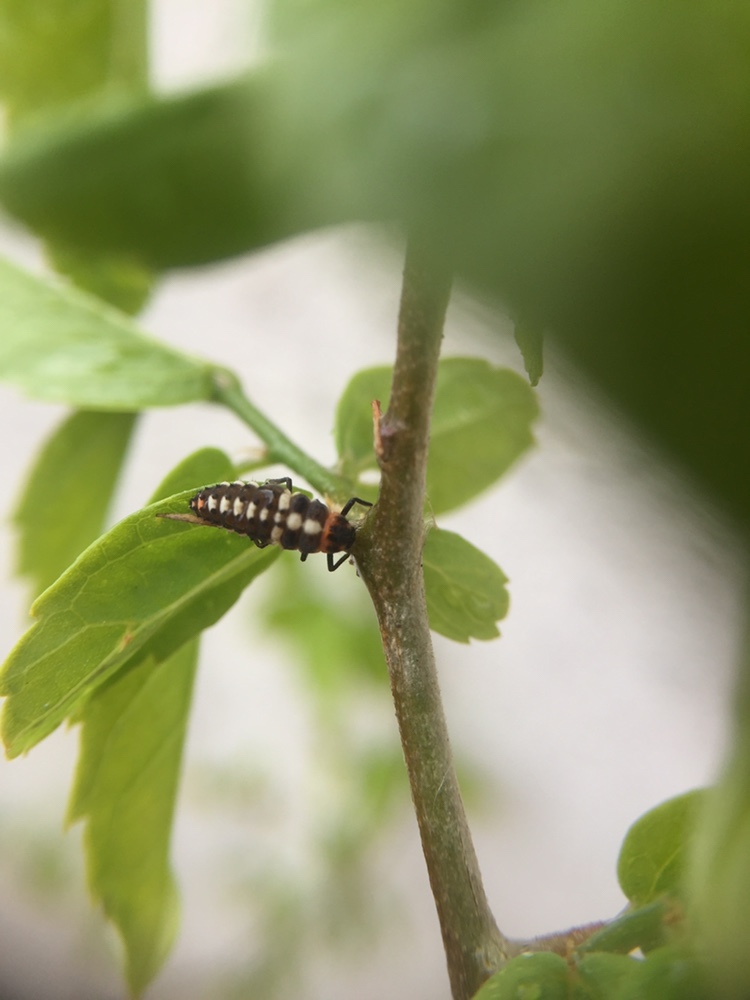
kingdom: Animalia
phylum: Arthropoda
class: Insecta
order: Coleoptera
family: Coccinellidae
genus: Eriopis
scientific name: Eriopis connexa
